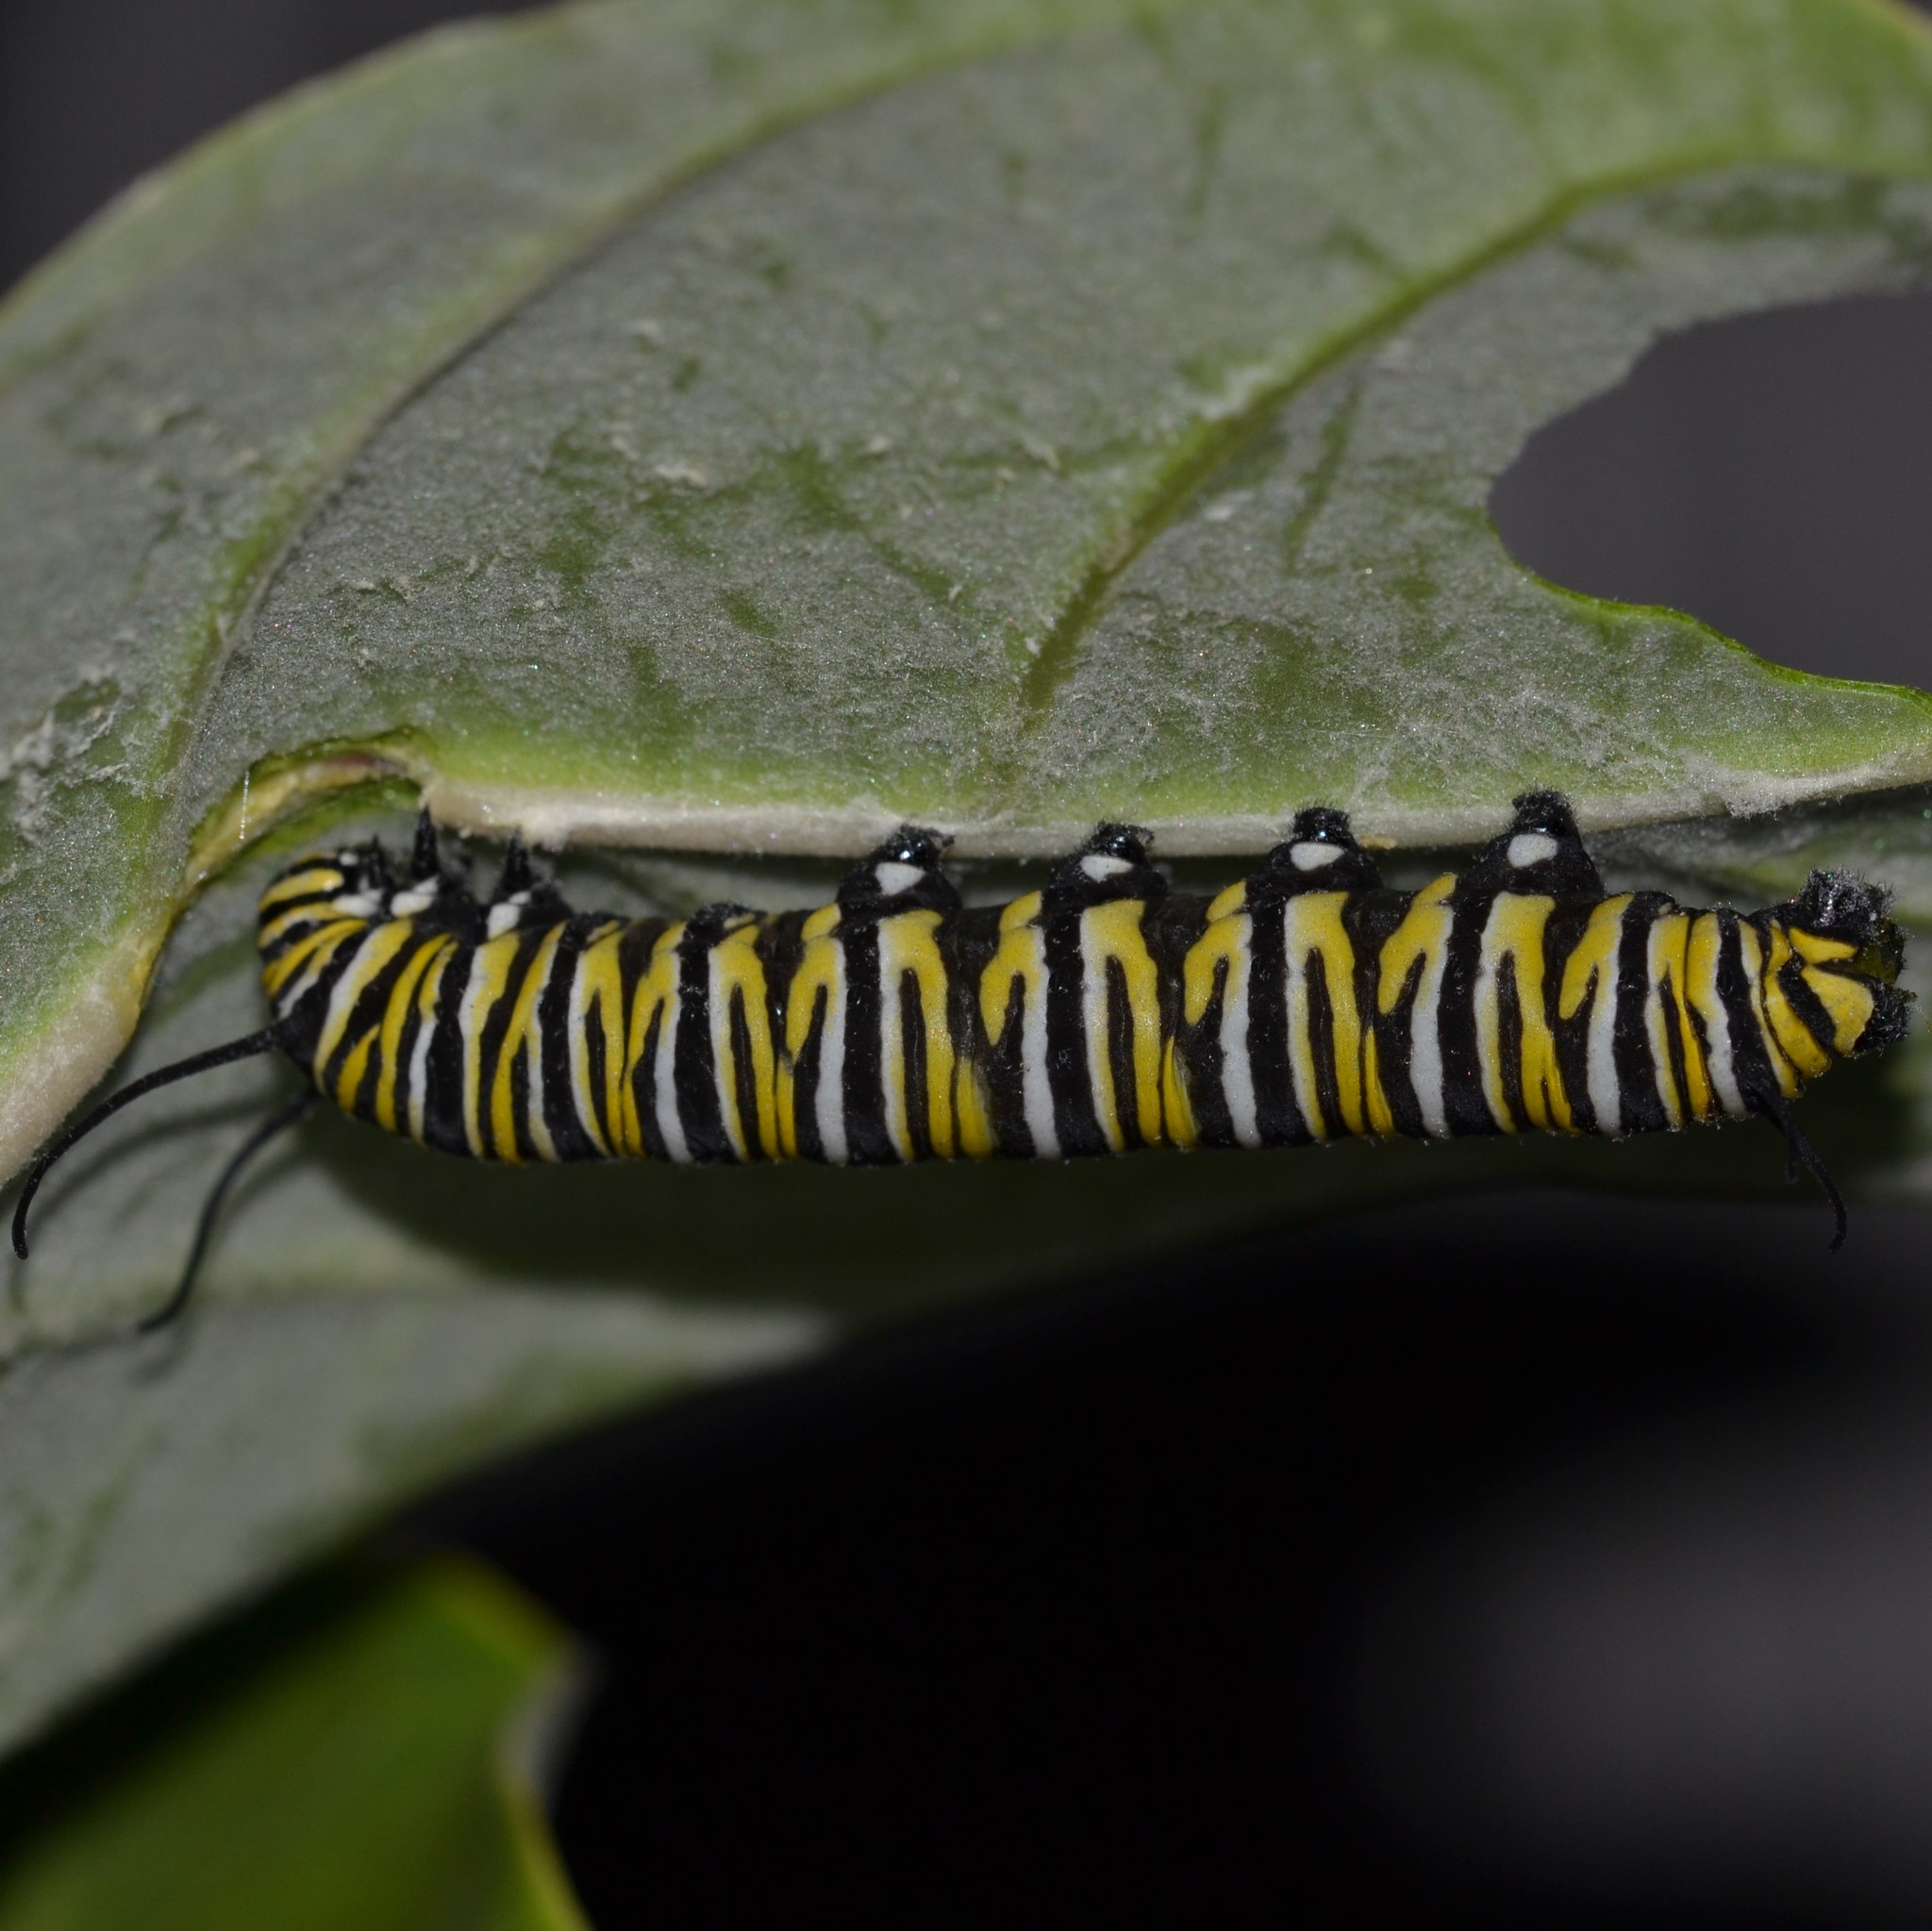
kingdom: Animalia
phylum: Arthropoda
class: Insecta
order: Lepidoptera
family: Nymphalidae
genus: Danaus
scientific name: Danaus plexippus
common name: Monarch
